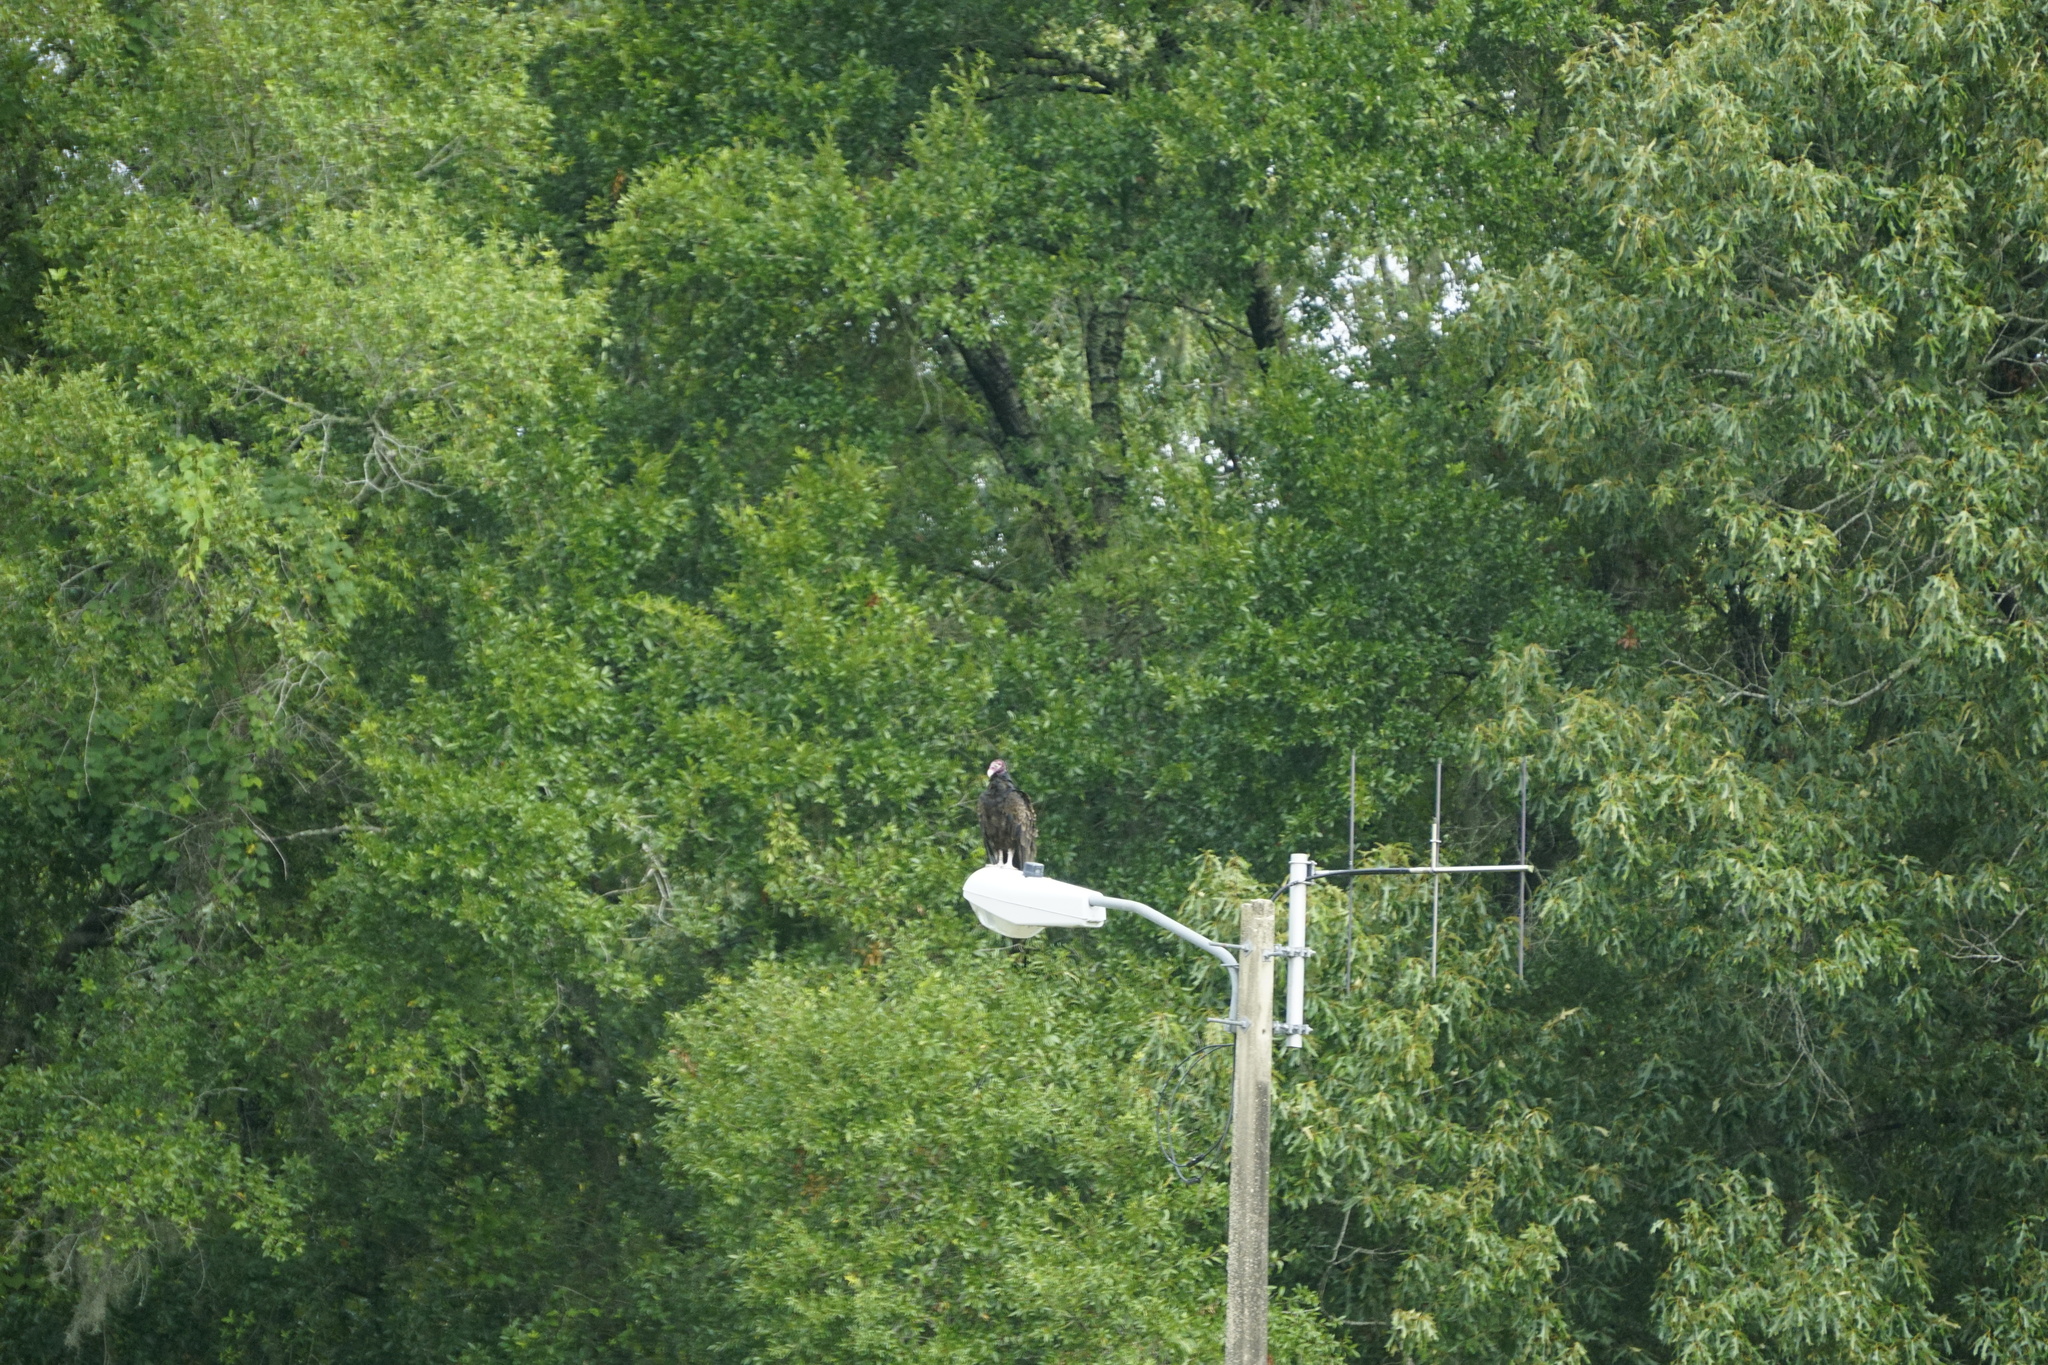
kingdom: Animalia
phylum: Chordata
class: Aves
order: Accipitriformes
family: Cathartidae
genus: Cathartes
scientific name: Cathartes aura
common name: Turkey vulture
